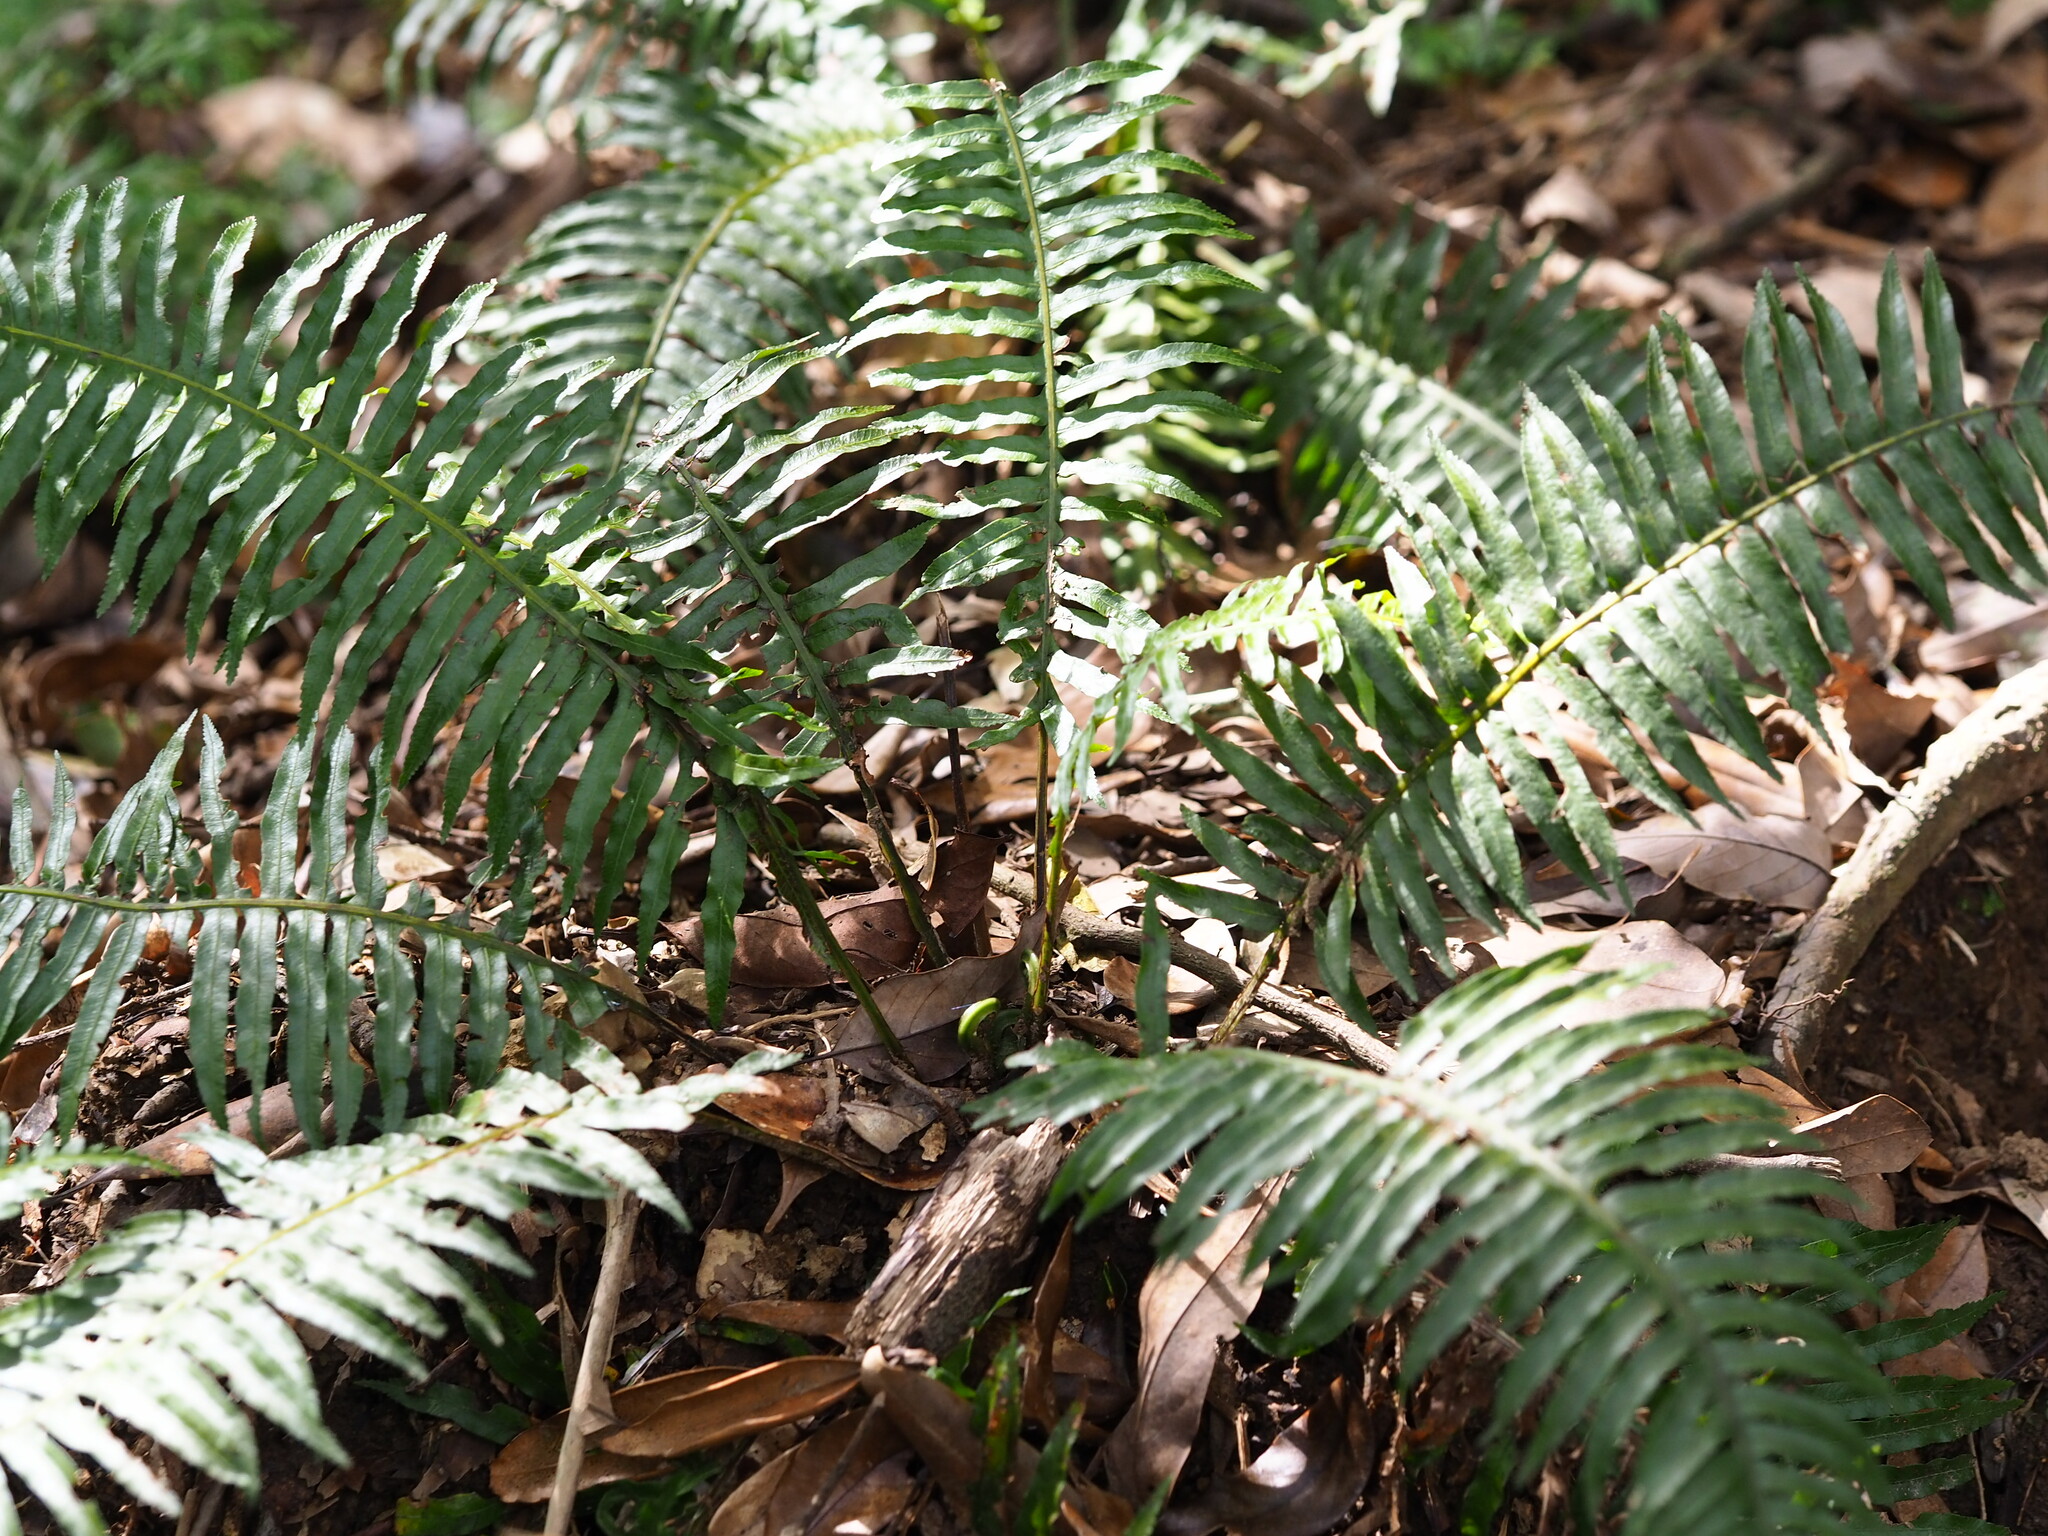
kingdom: Plantae
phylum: Tracheophyta
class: Polypodiopsida
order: Cyatheales
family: Plagiogyriaceae
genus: Plagiogyria
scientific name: Plagiogyria falcata
